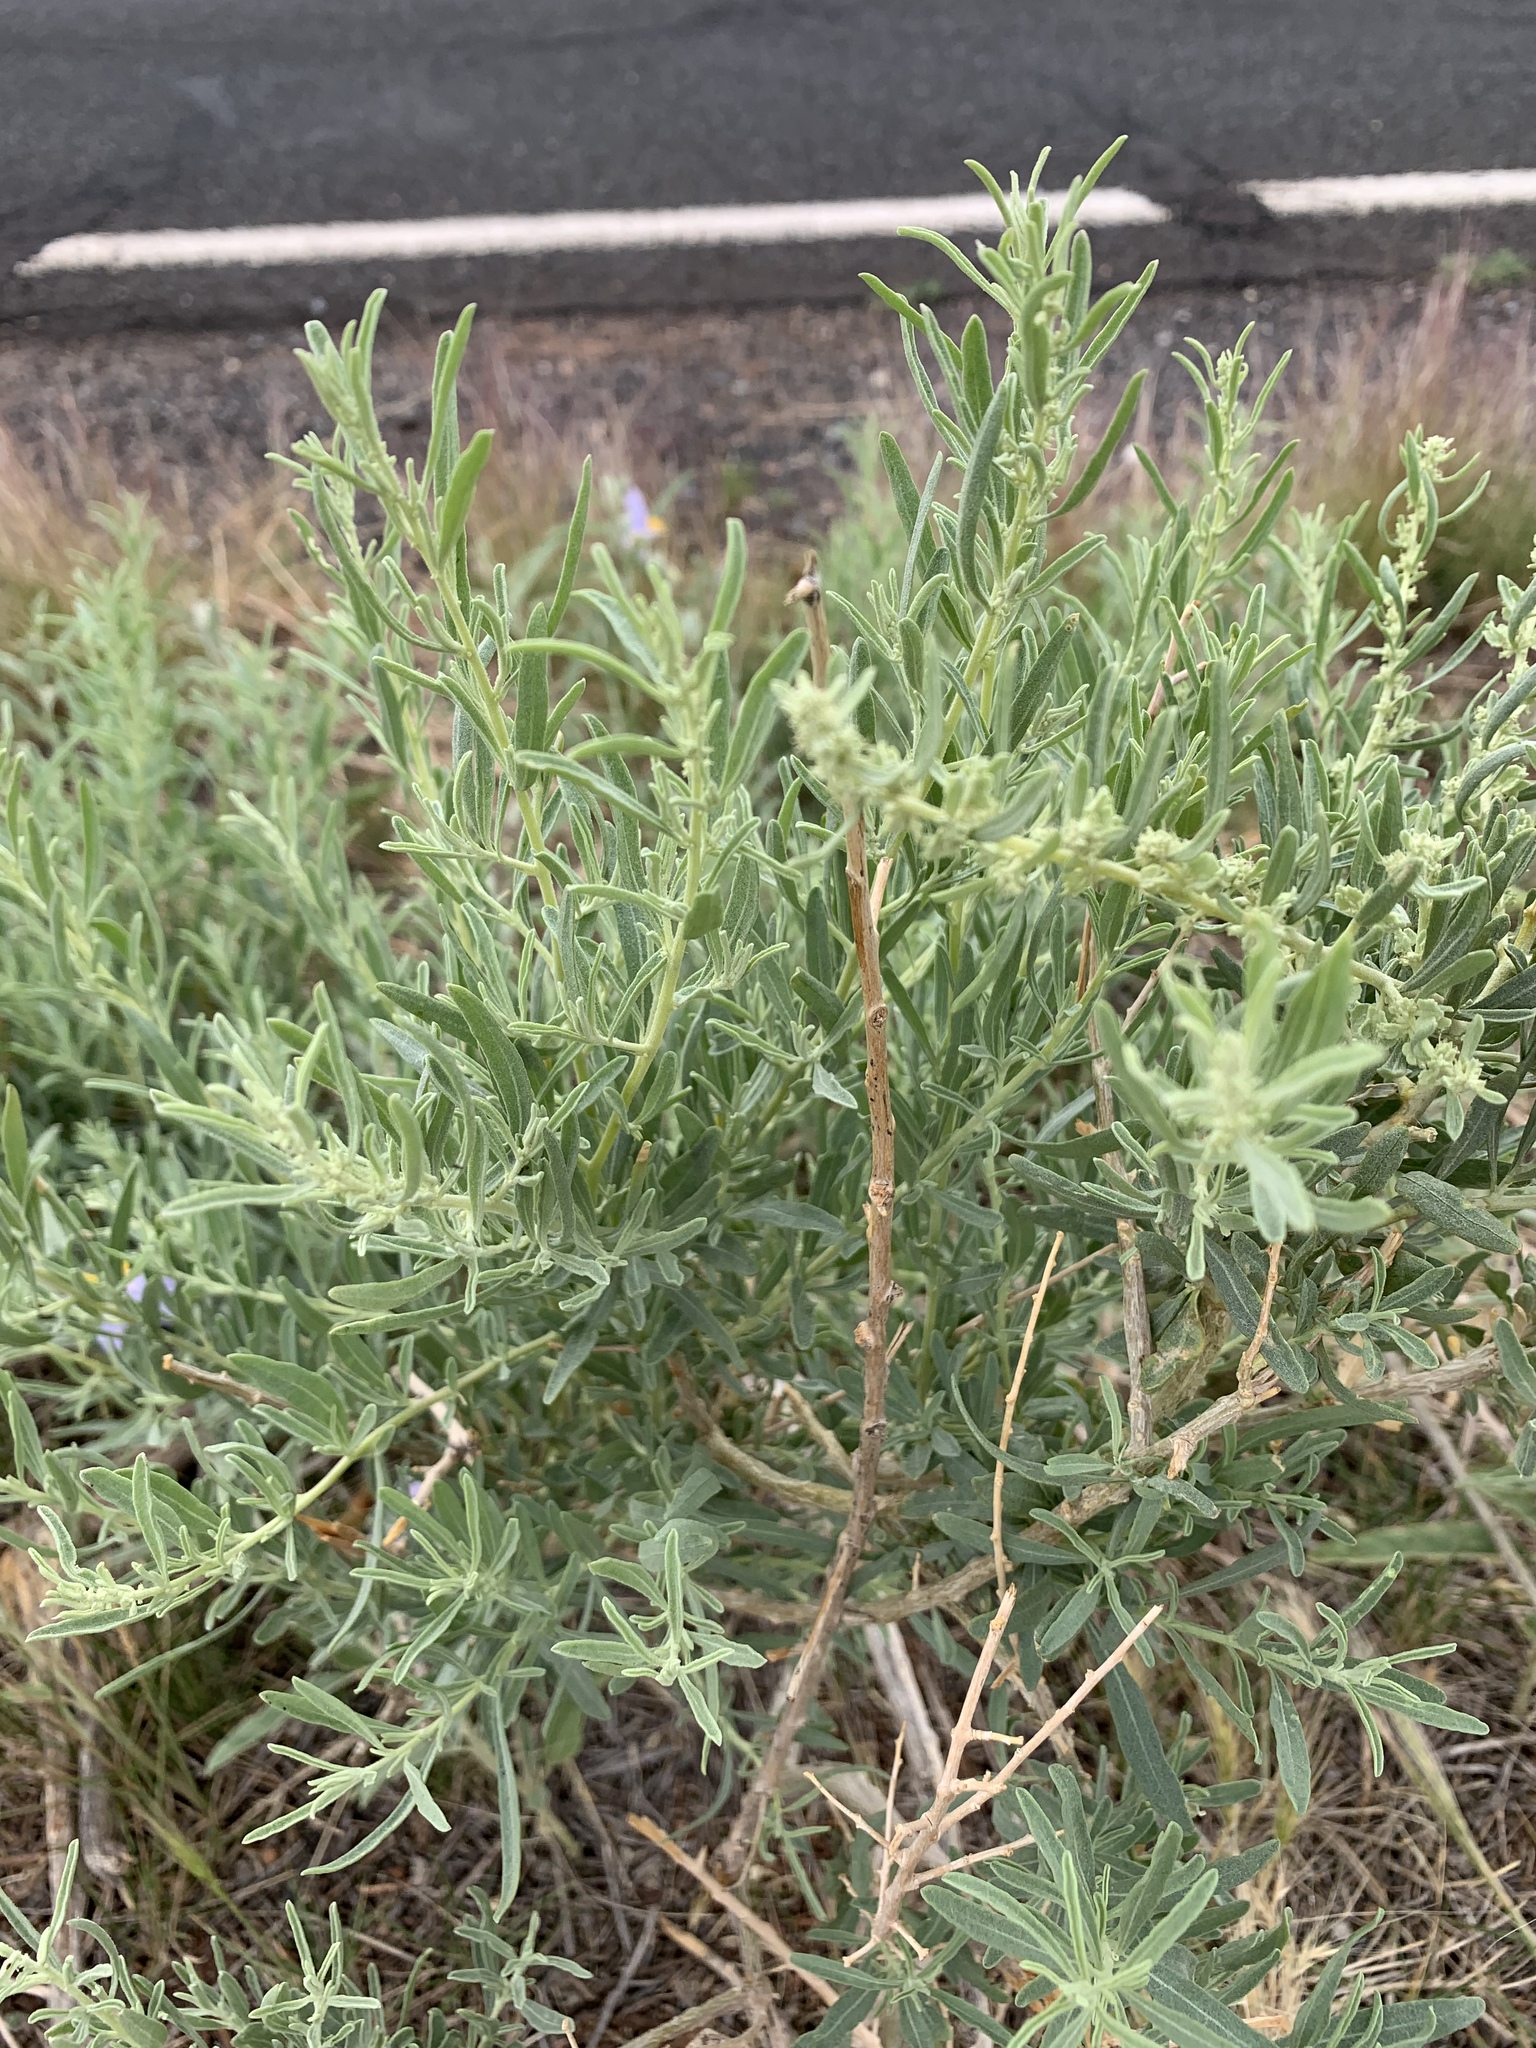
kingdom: Plantae
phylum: Tracheophyta
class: Magnoliopsida
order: Caryophyllales
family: Amaranthaceae
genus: Atriplex
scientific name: Atriplex canescens
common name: Four-wing saltbush
